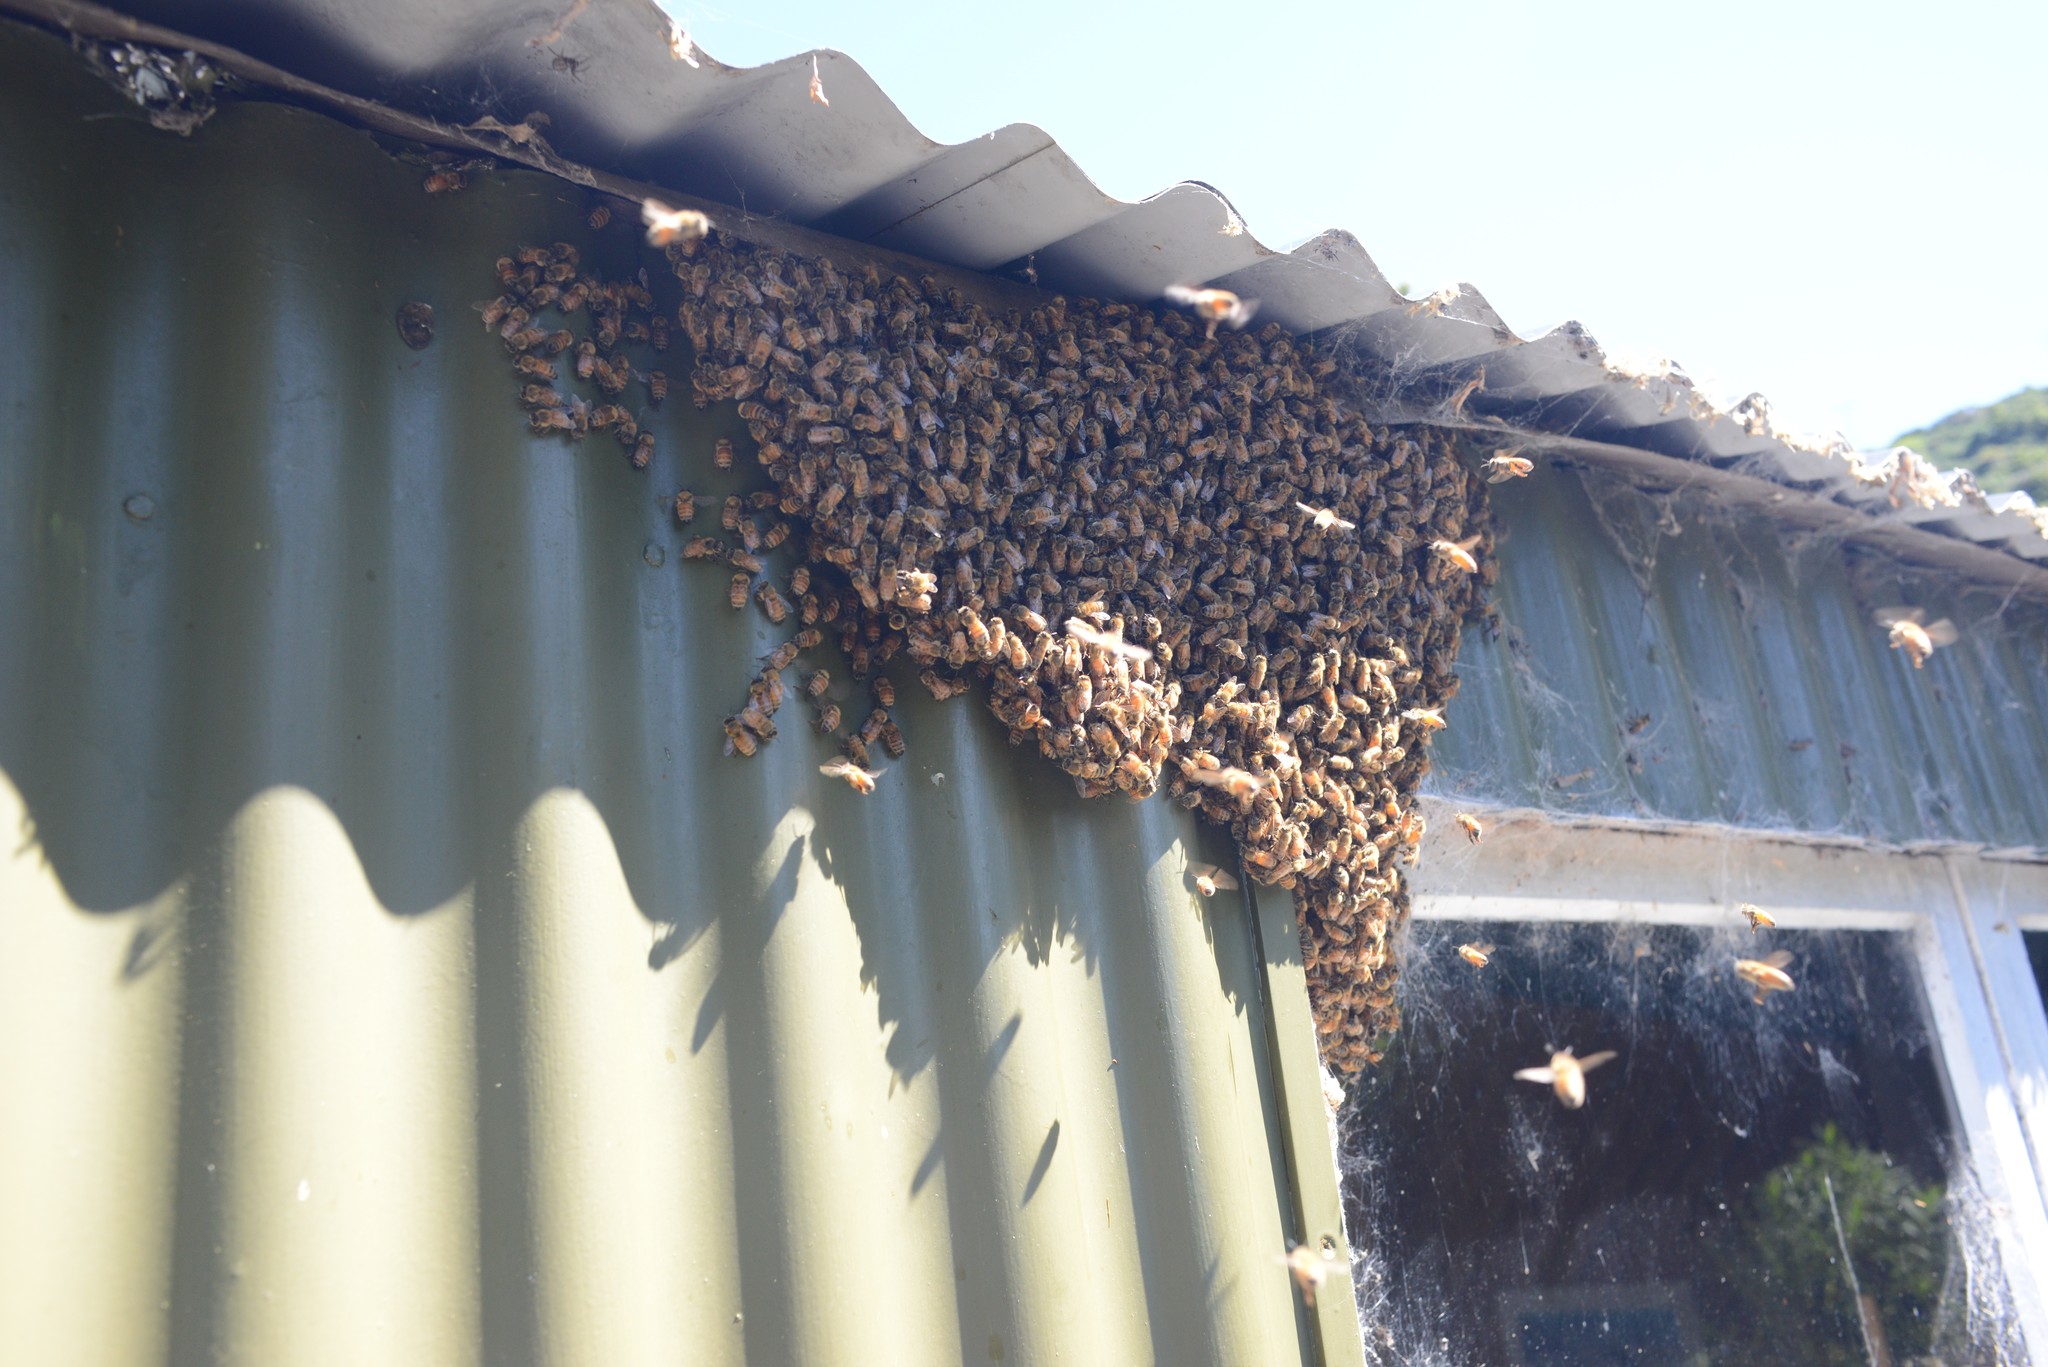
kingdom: Animalia
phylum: Arthropoda
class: Insecta
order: Hymenoptera
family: Apidae
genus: Apis
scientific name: Apis mellifera
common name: Honey bee
